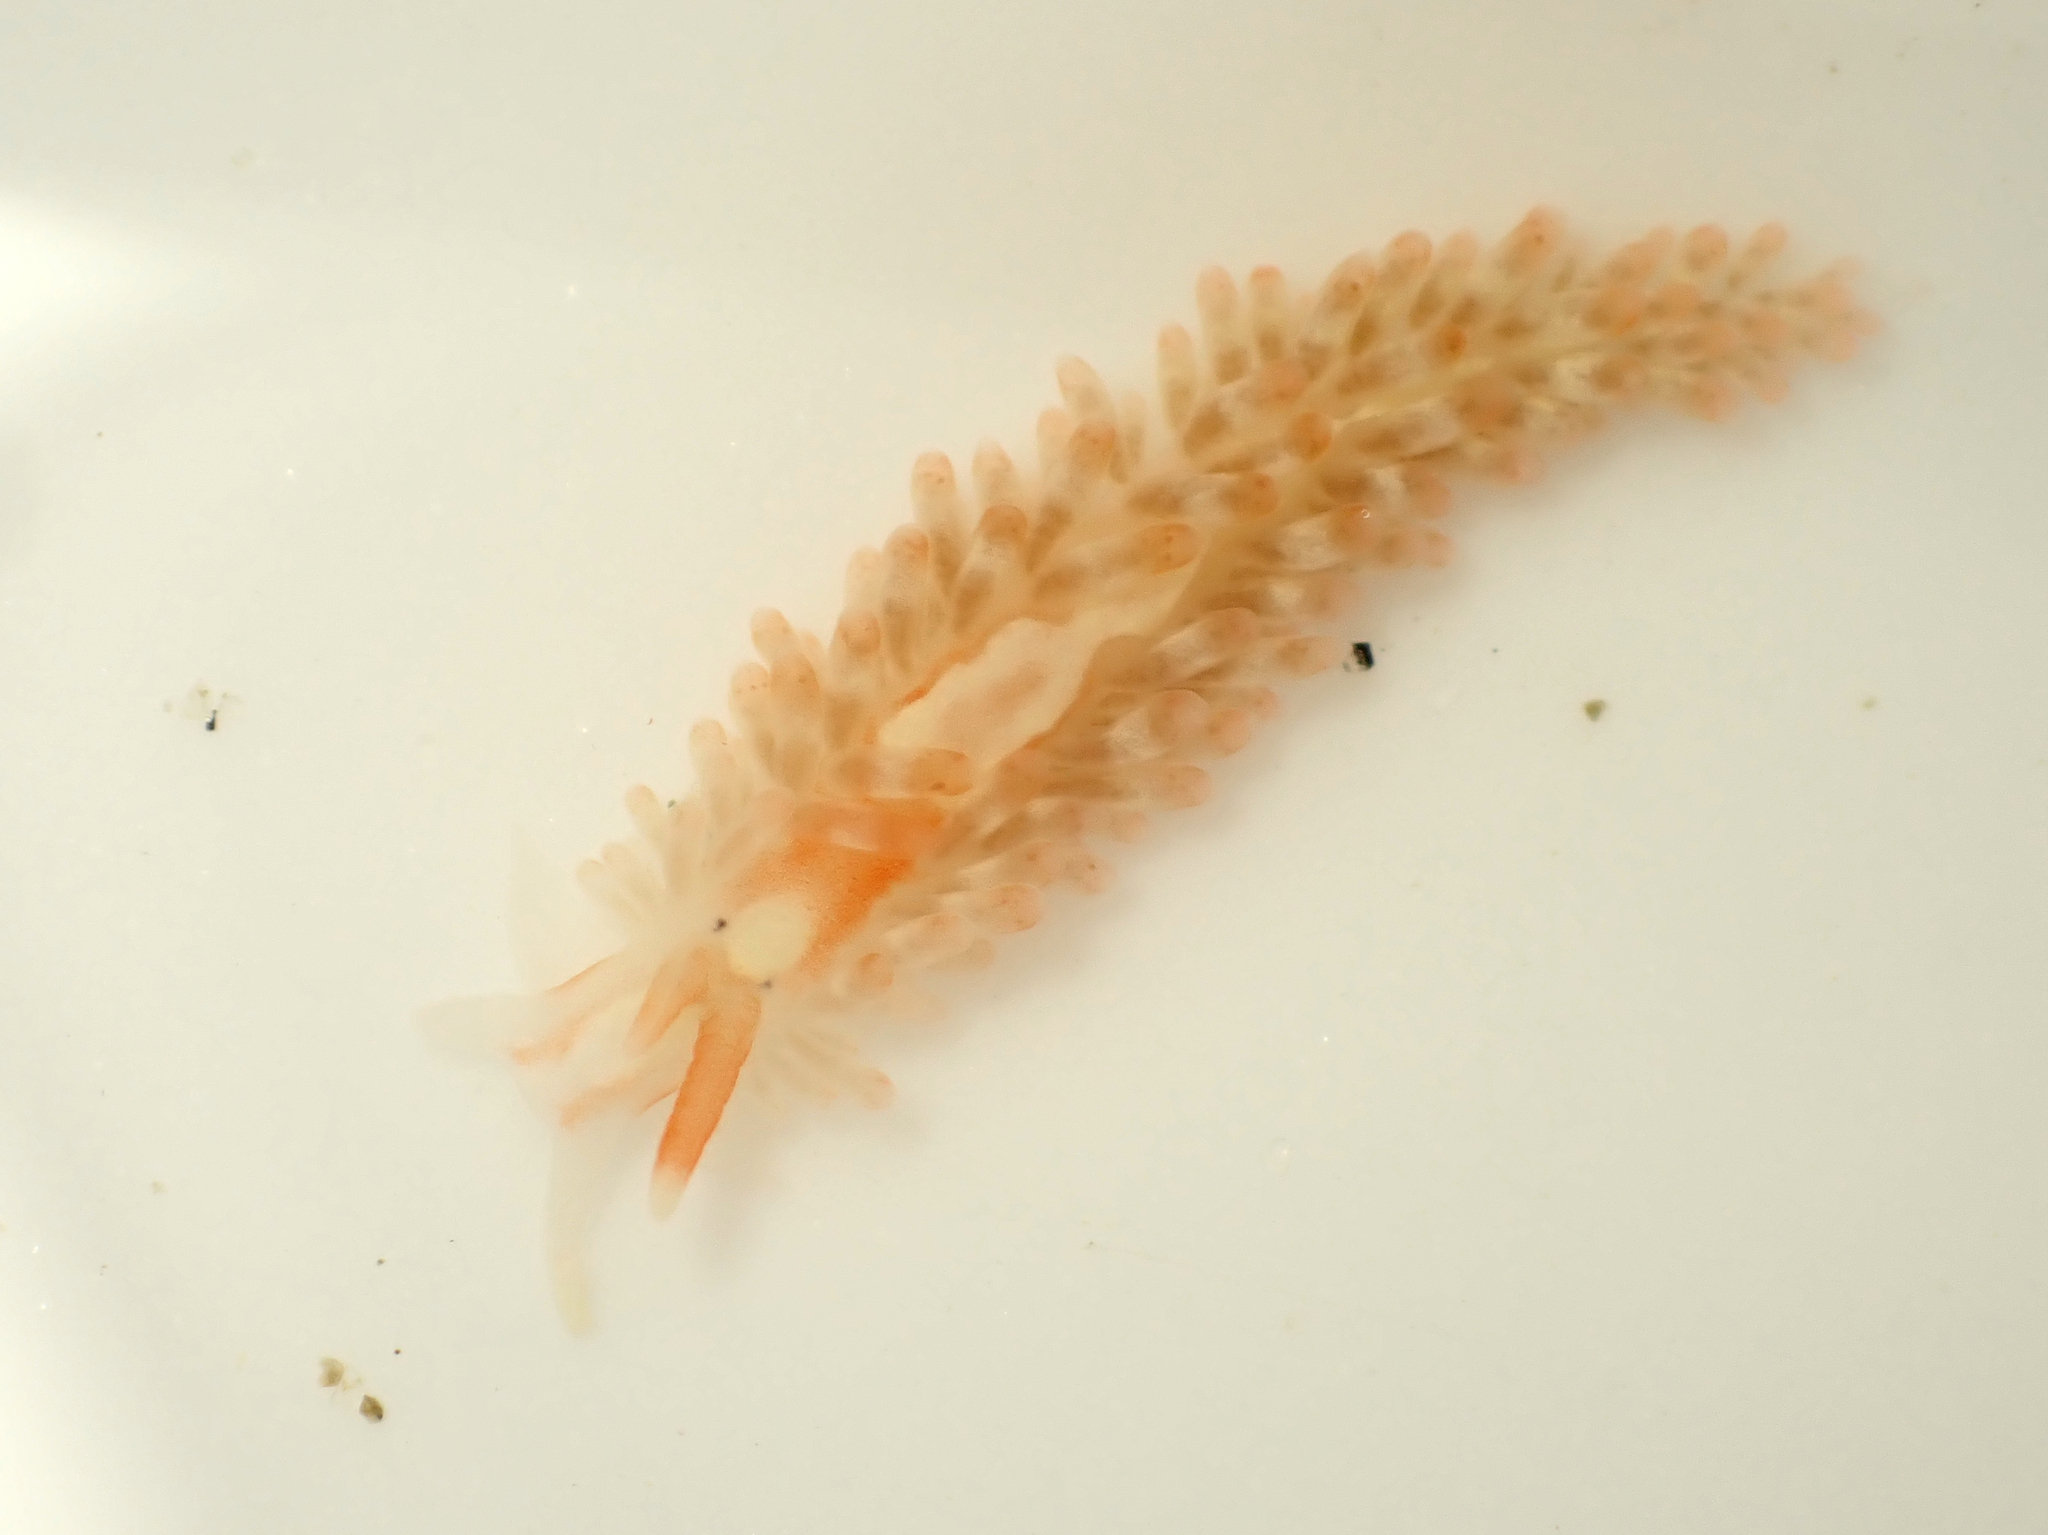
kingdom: Animalia
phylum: Mollusca
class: Gastropoda
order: Nudibranchia
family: Aeolidiidae
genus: Anteaeolidiella
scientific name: Anteaeolidiella lurana
